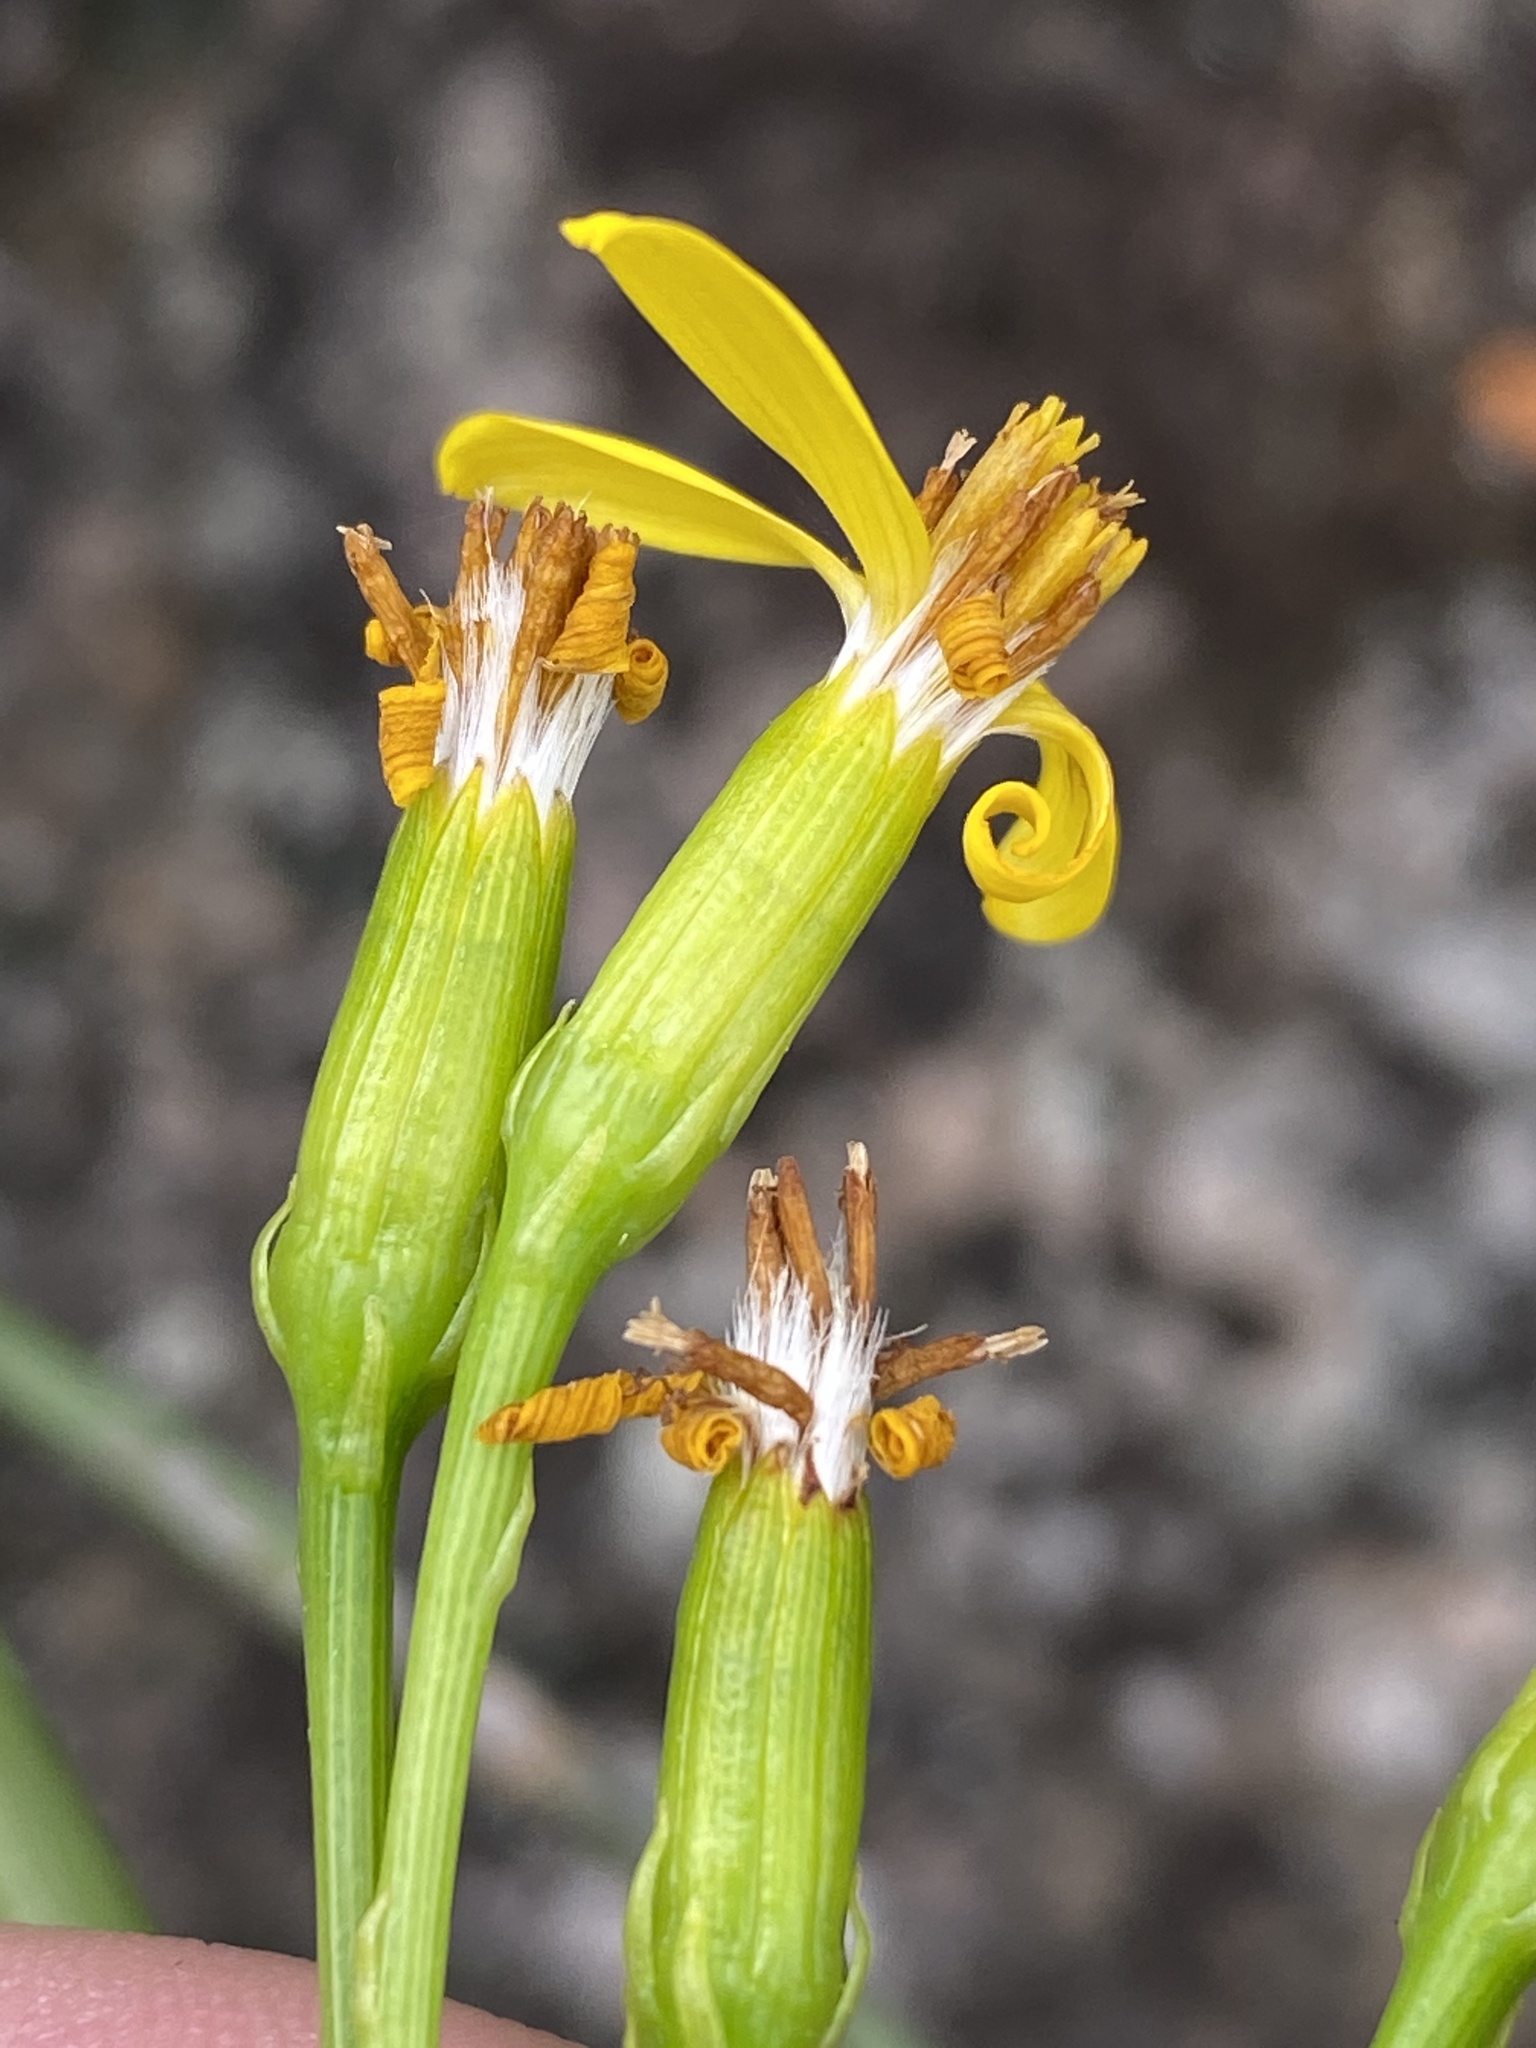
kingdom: Plantae
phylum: Tracheophyta
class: Magnoliopsida
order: Asterales
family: Asteraceae
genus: Senecio
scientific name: Senecio junceus
